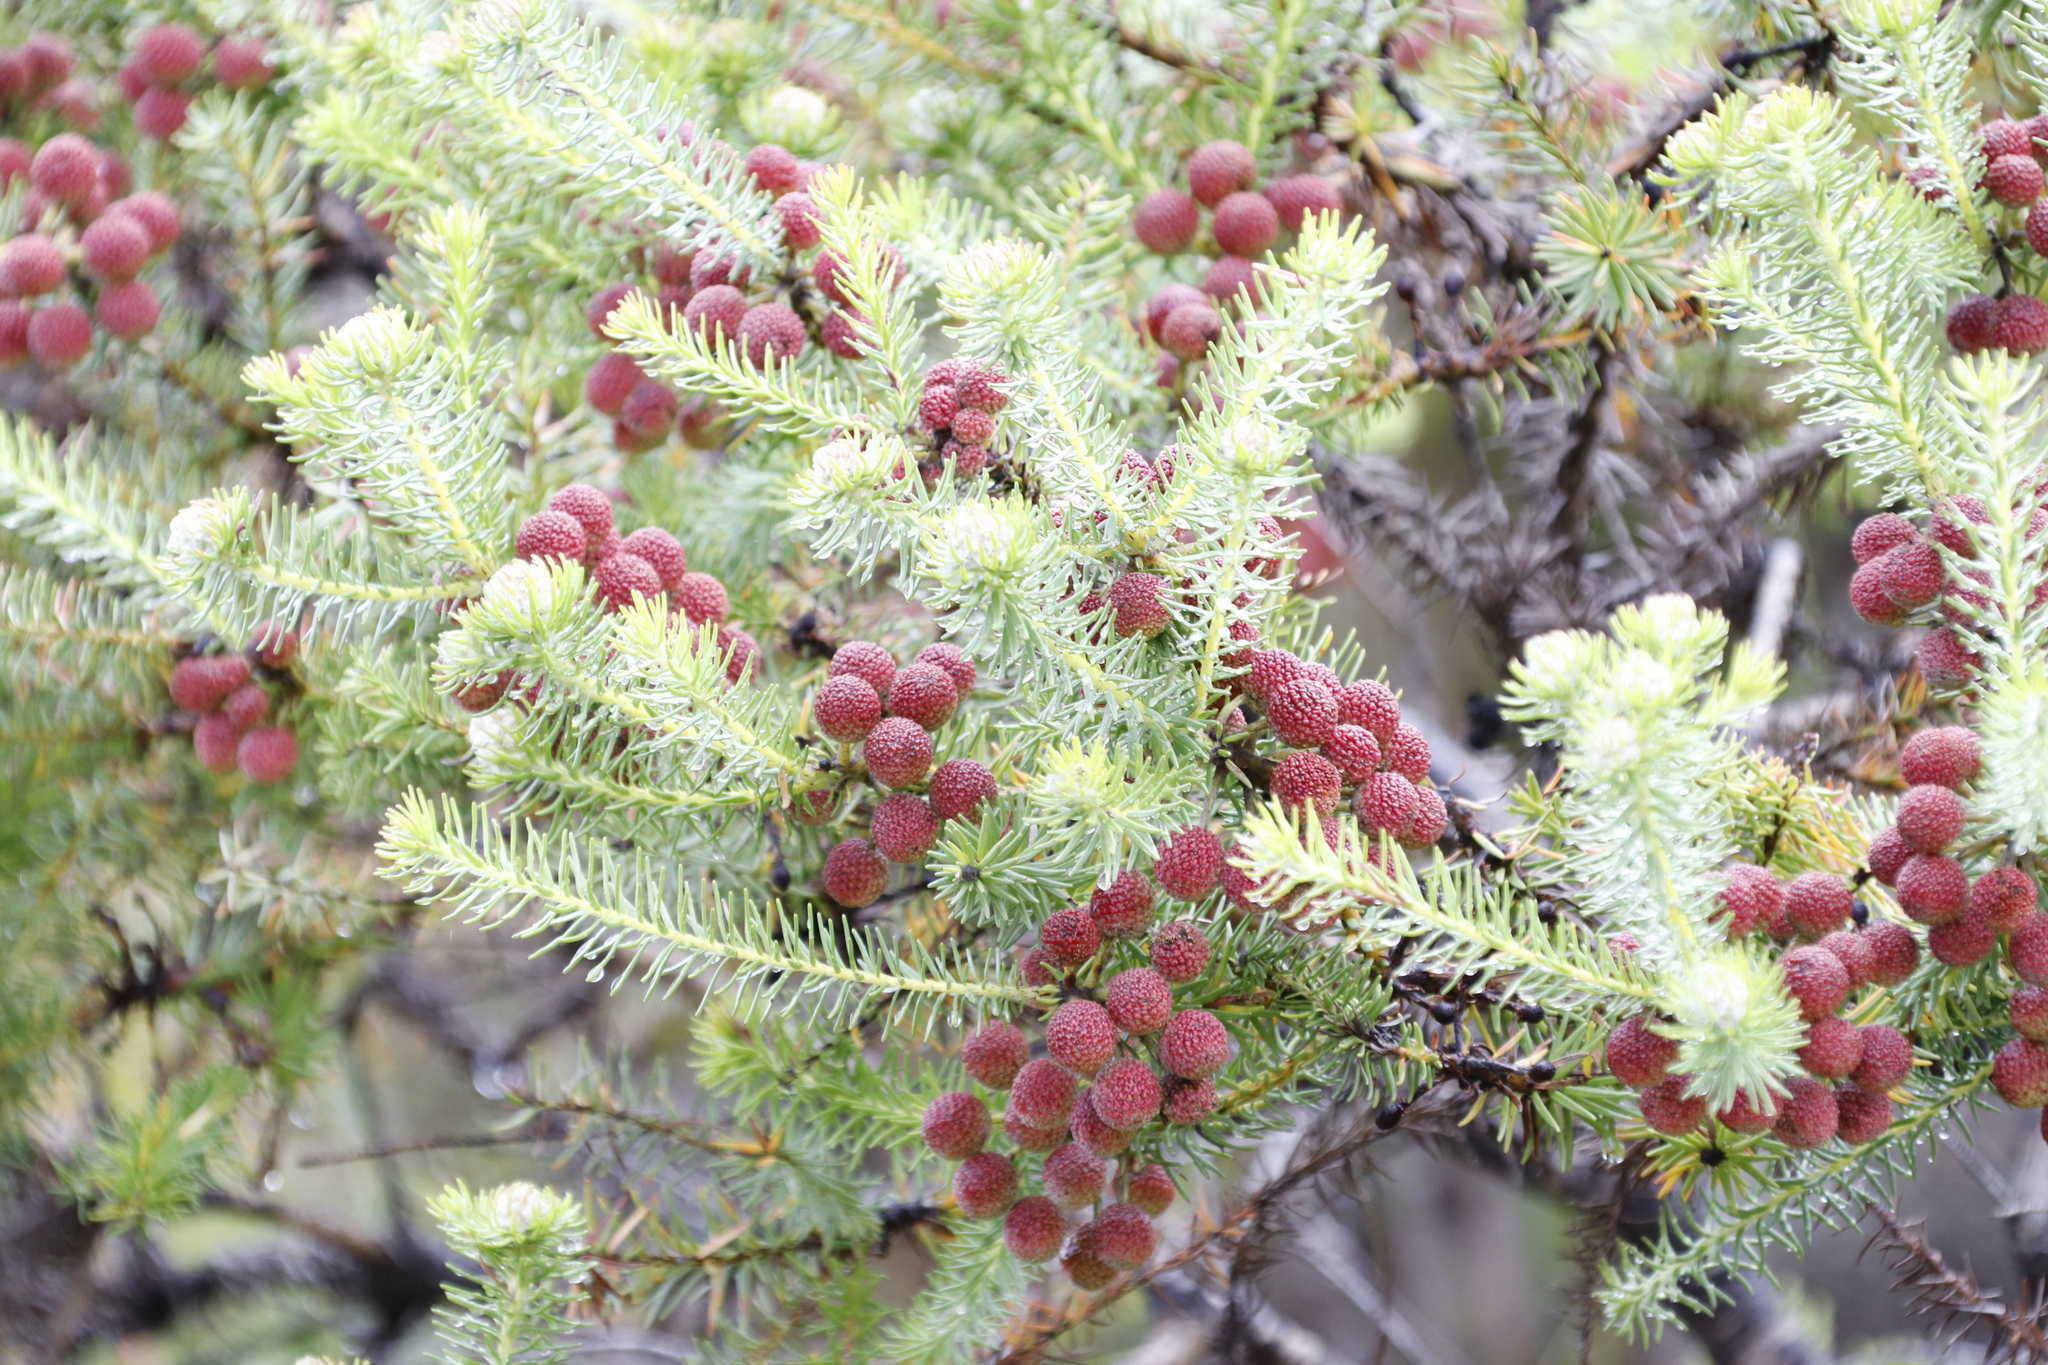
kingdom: Plantae
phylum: Tracheophyta
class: Magnoliopsida
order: Bruniales
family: Bruniaceae
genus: Berzelia
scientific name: Berzelia squarrosa
